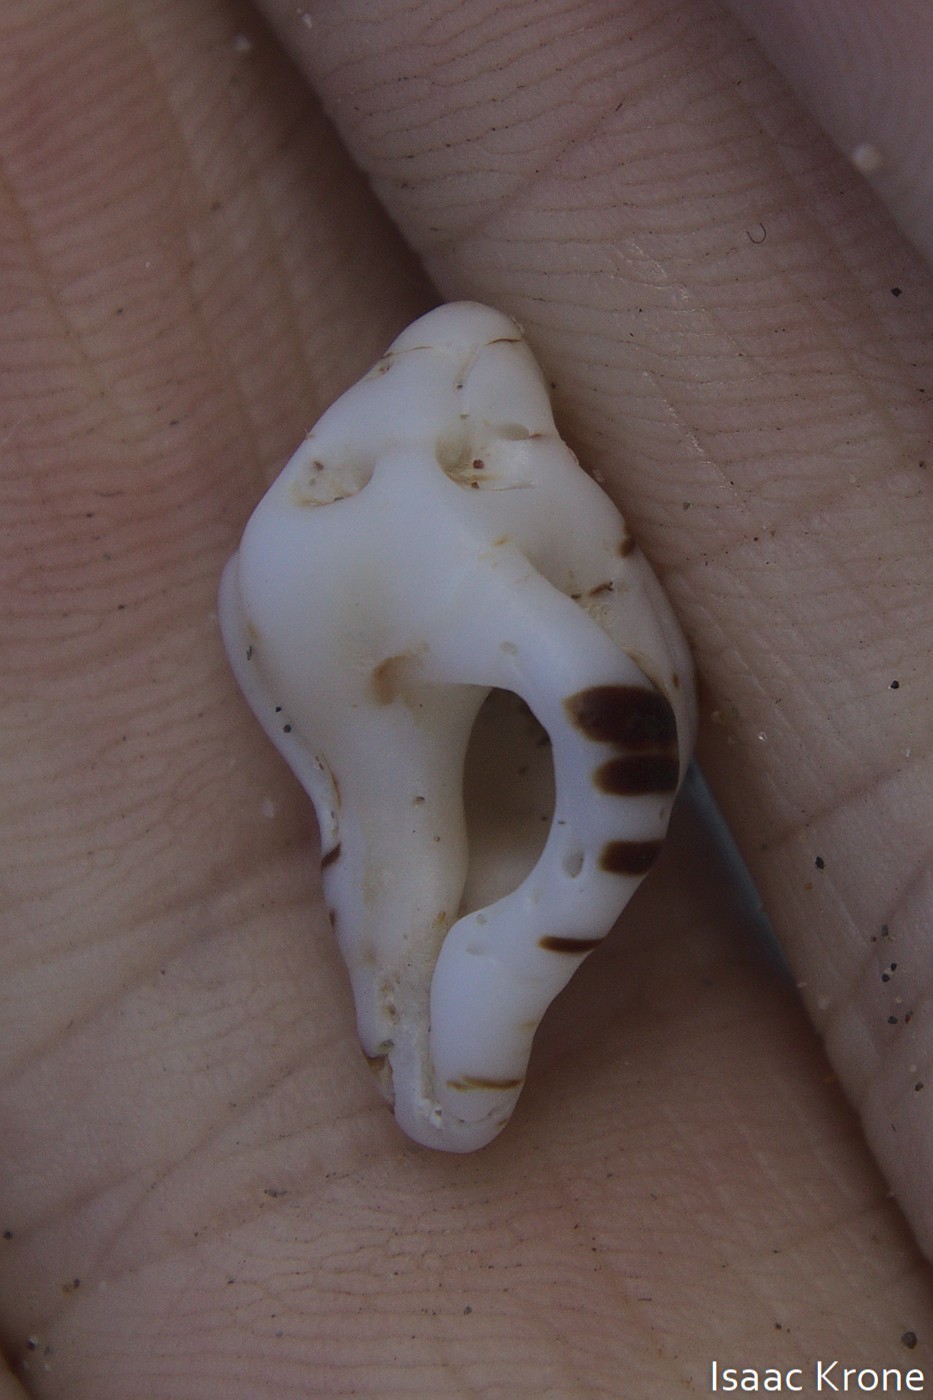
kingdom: Animalia
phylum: Mollusca
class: Gastropoda
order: Neogastropoda
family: Muricidae
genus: Maxwellia
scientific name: Maxwellia gemma
